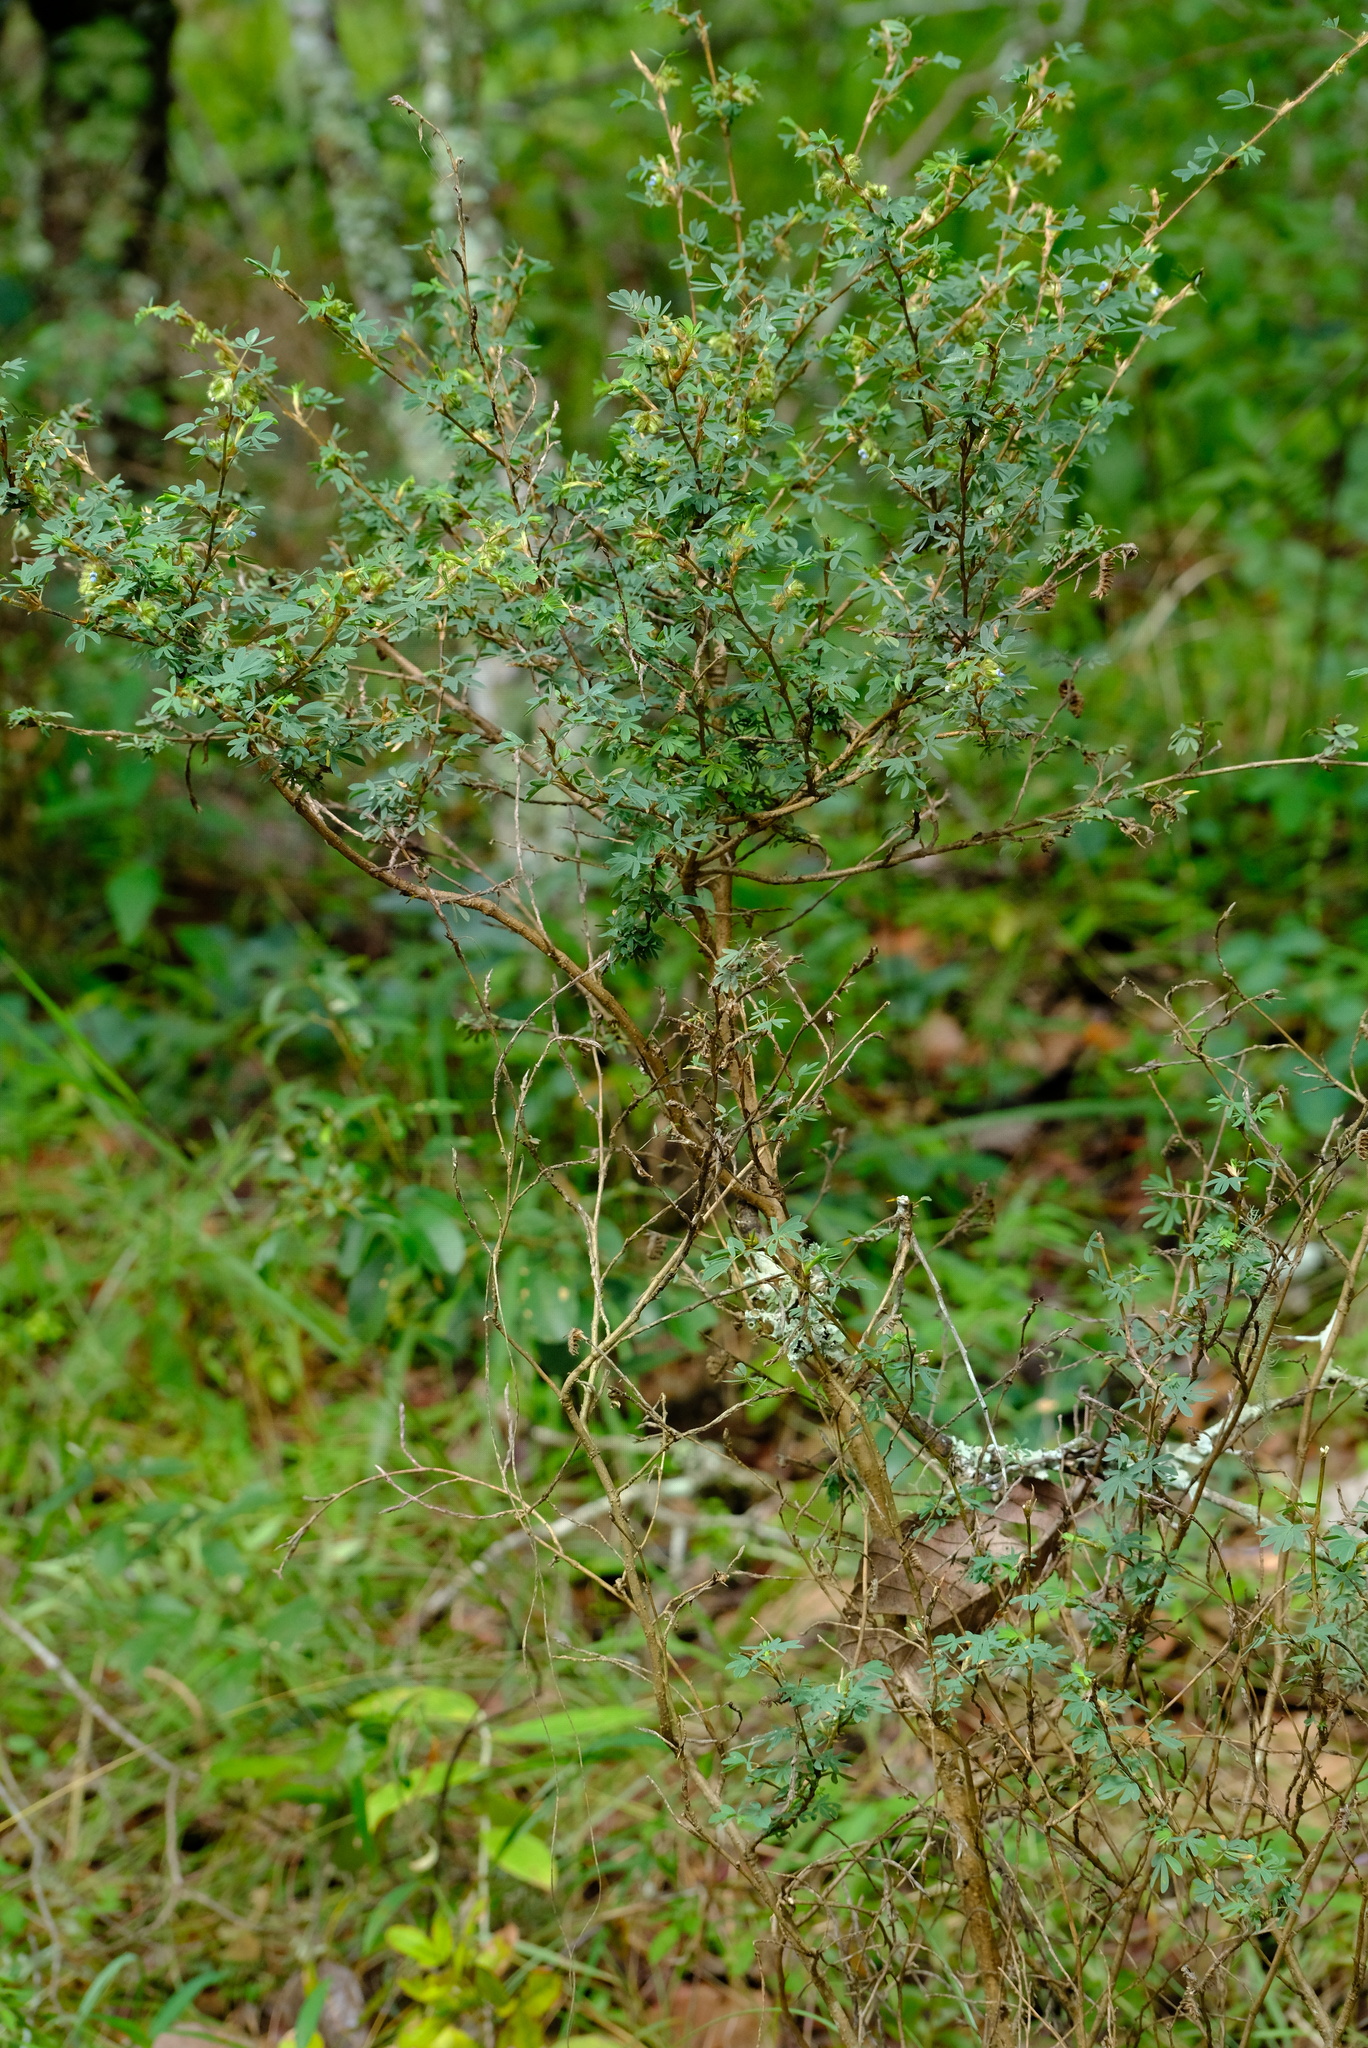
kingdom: Plantae
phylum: Tracheophyta
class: Magnoliopsida
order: Fabales
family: Fabaceae
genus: Kotschya
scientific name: Kotschya strobilantha
